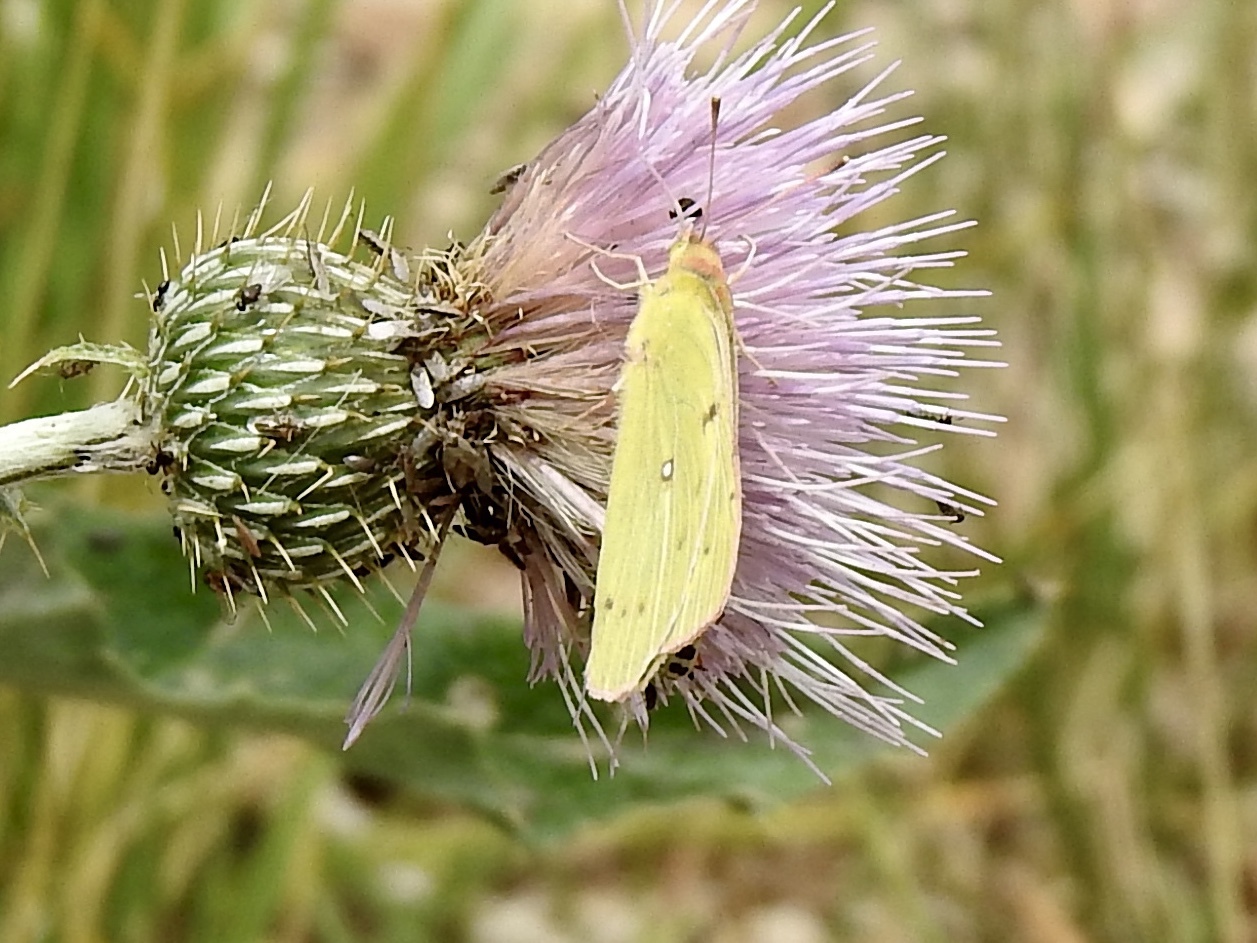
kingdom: Animalia
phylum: Arthropoda
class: Insecta
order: Lepidoptera
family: Pieridae
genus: Colias
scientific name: Colias eurytheme
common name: Alfalfa butterfly
